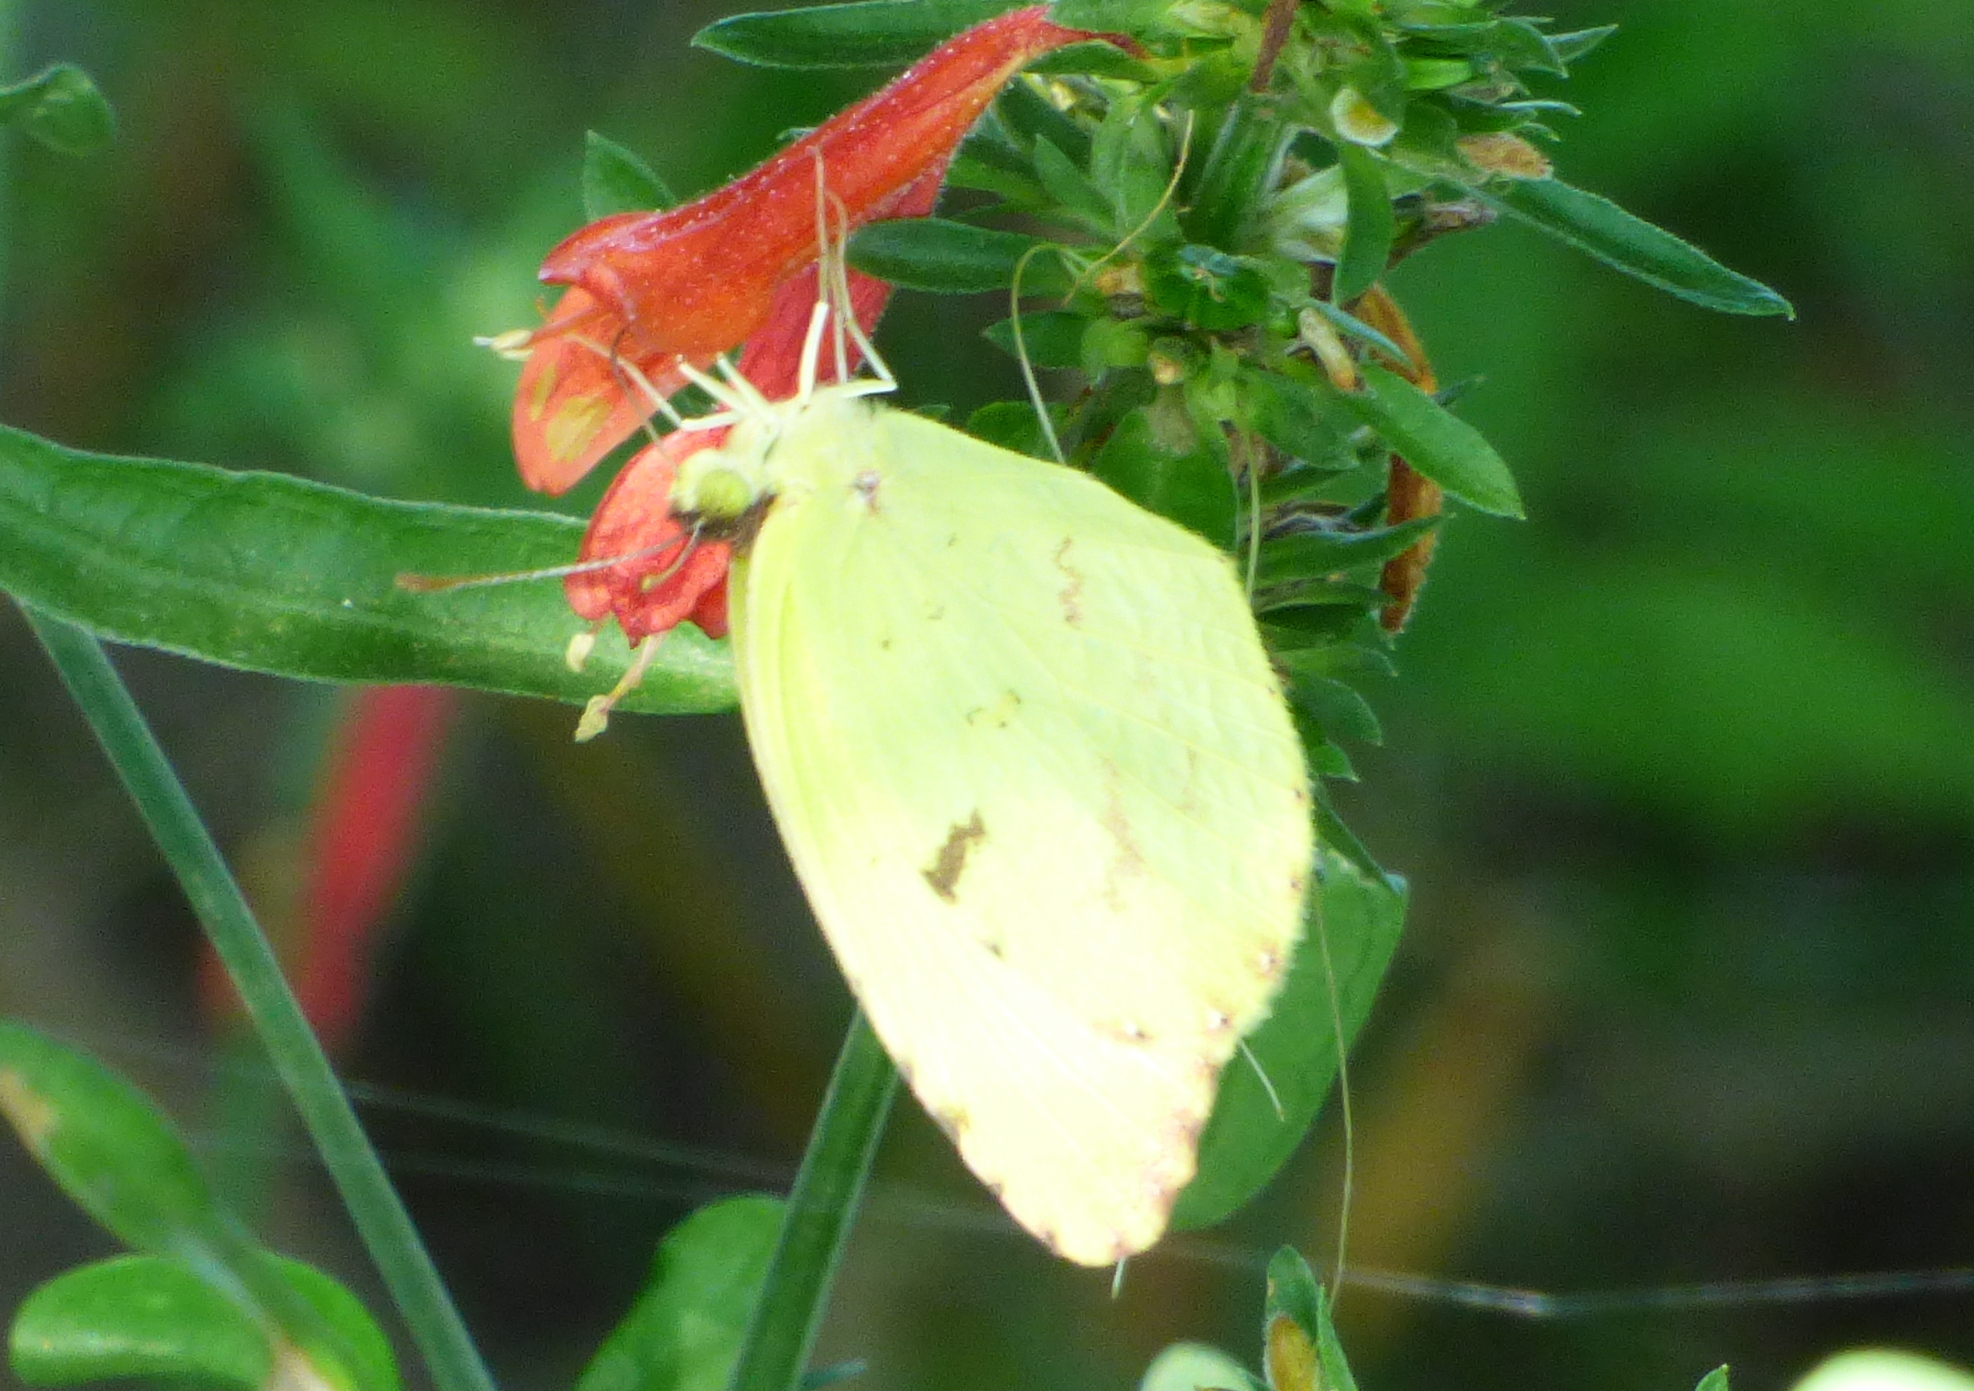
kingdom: Animalia
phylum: Arthropoda
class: Insecta
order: Lepidoptera
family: Pieridae
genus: Teriocolias
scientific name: Teriocolias
